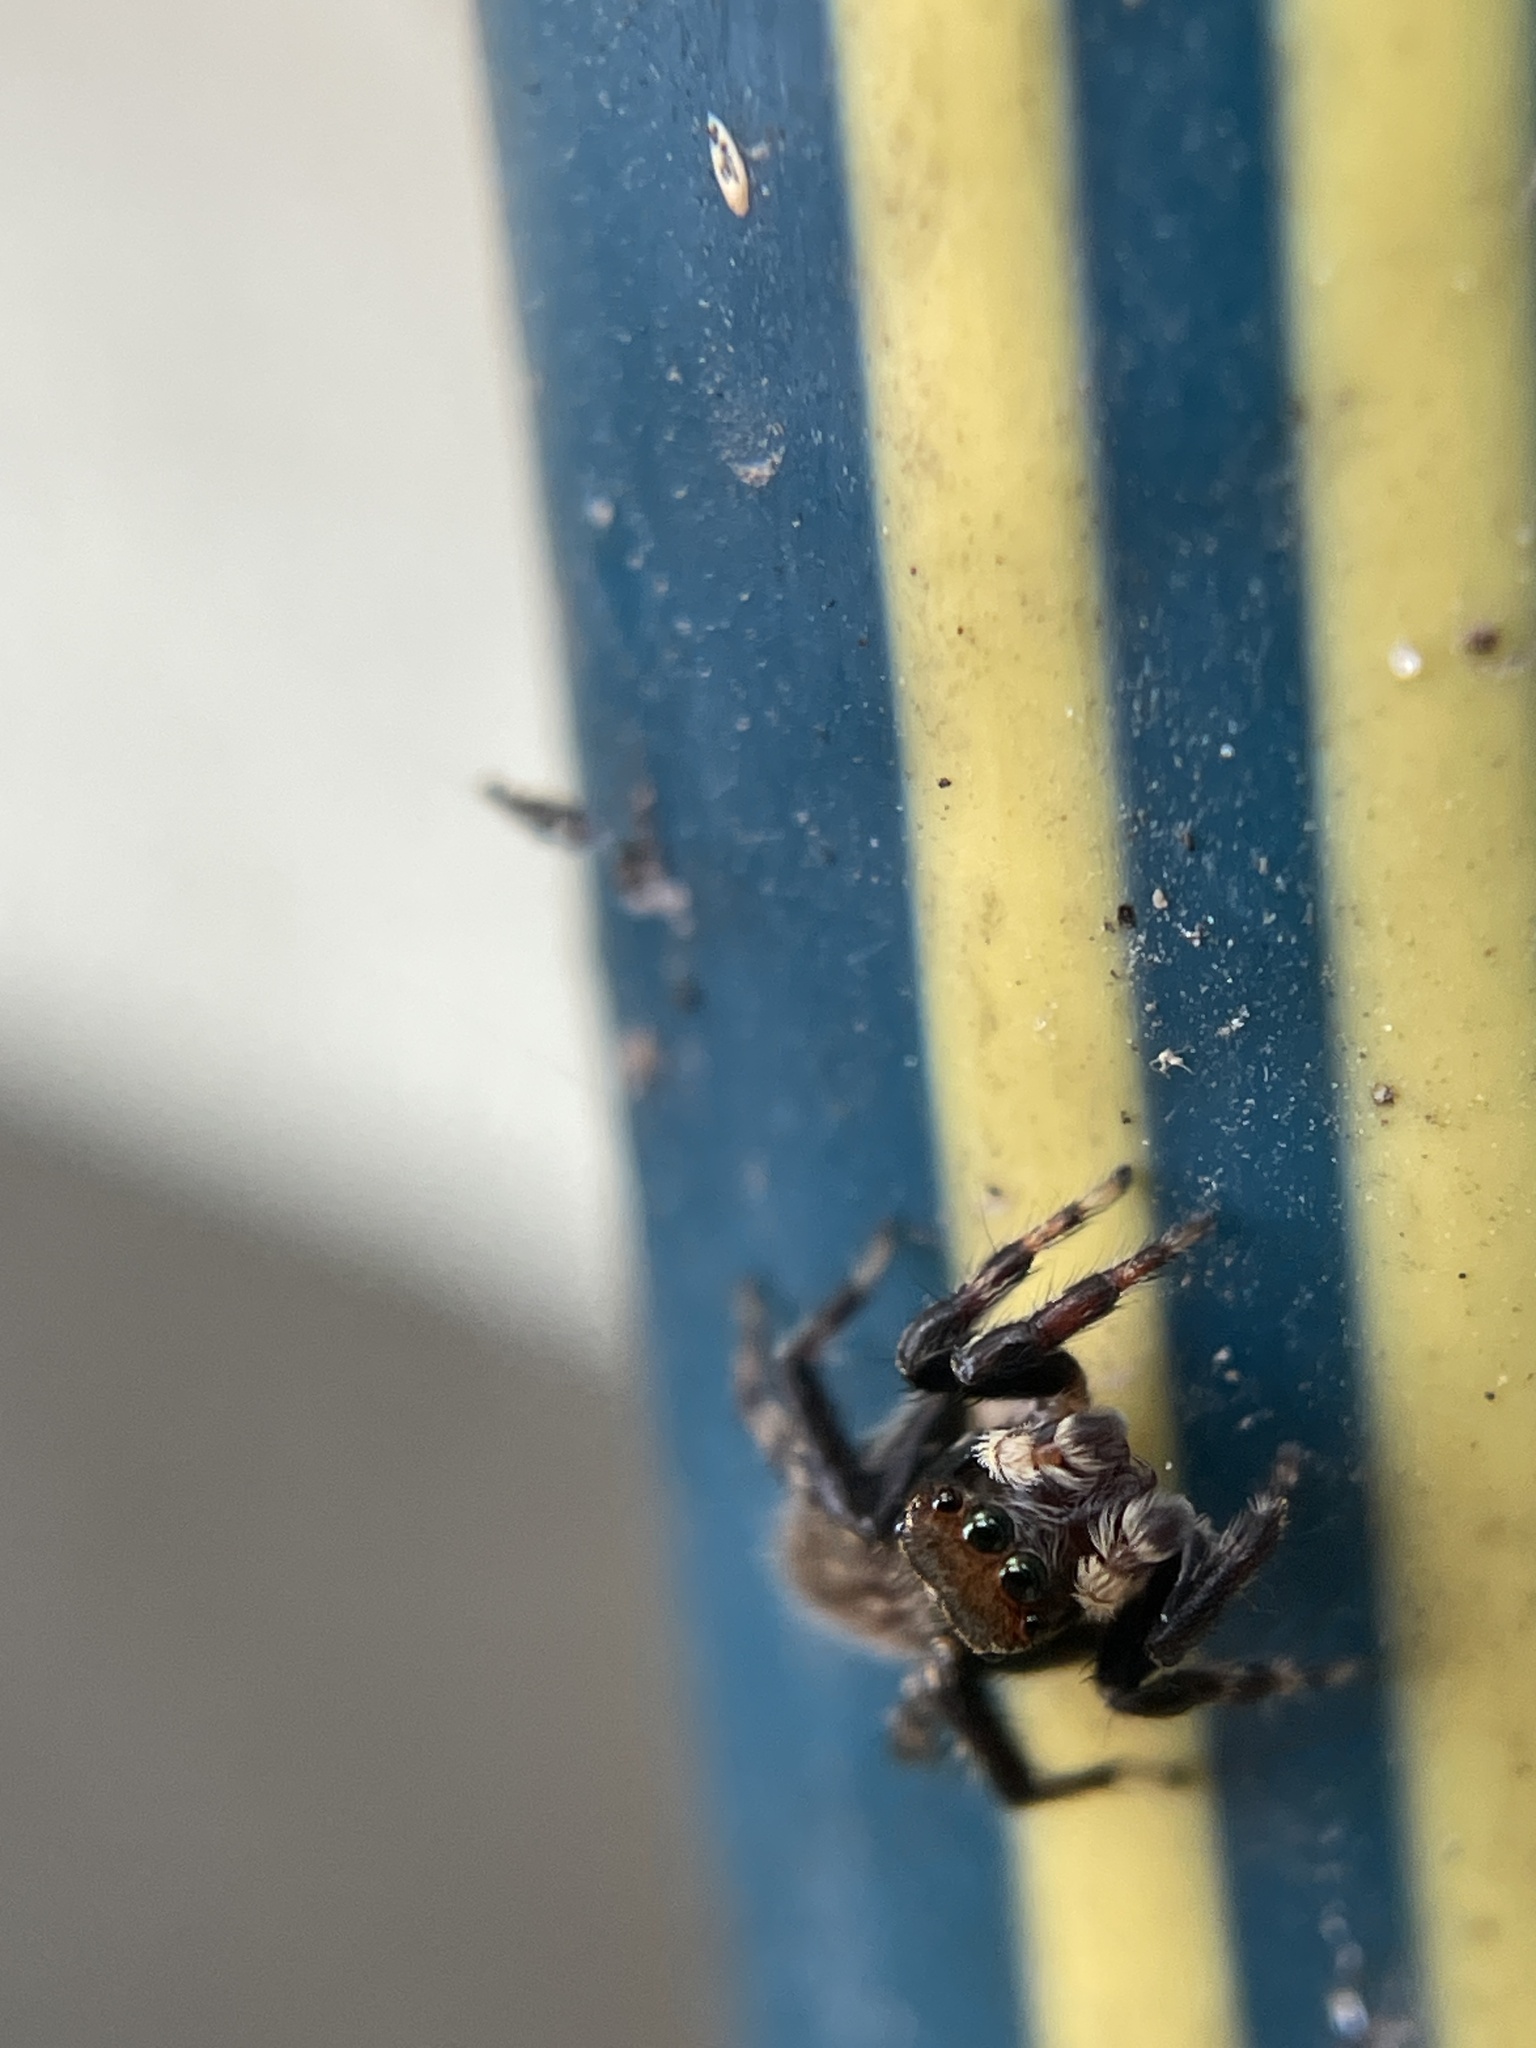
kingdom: Animalia
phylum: Arthropoda
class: Arachnida
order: Araneae
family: Salticidae
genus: Maratus
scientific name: Maratus griseus
